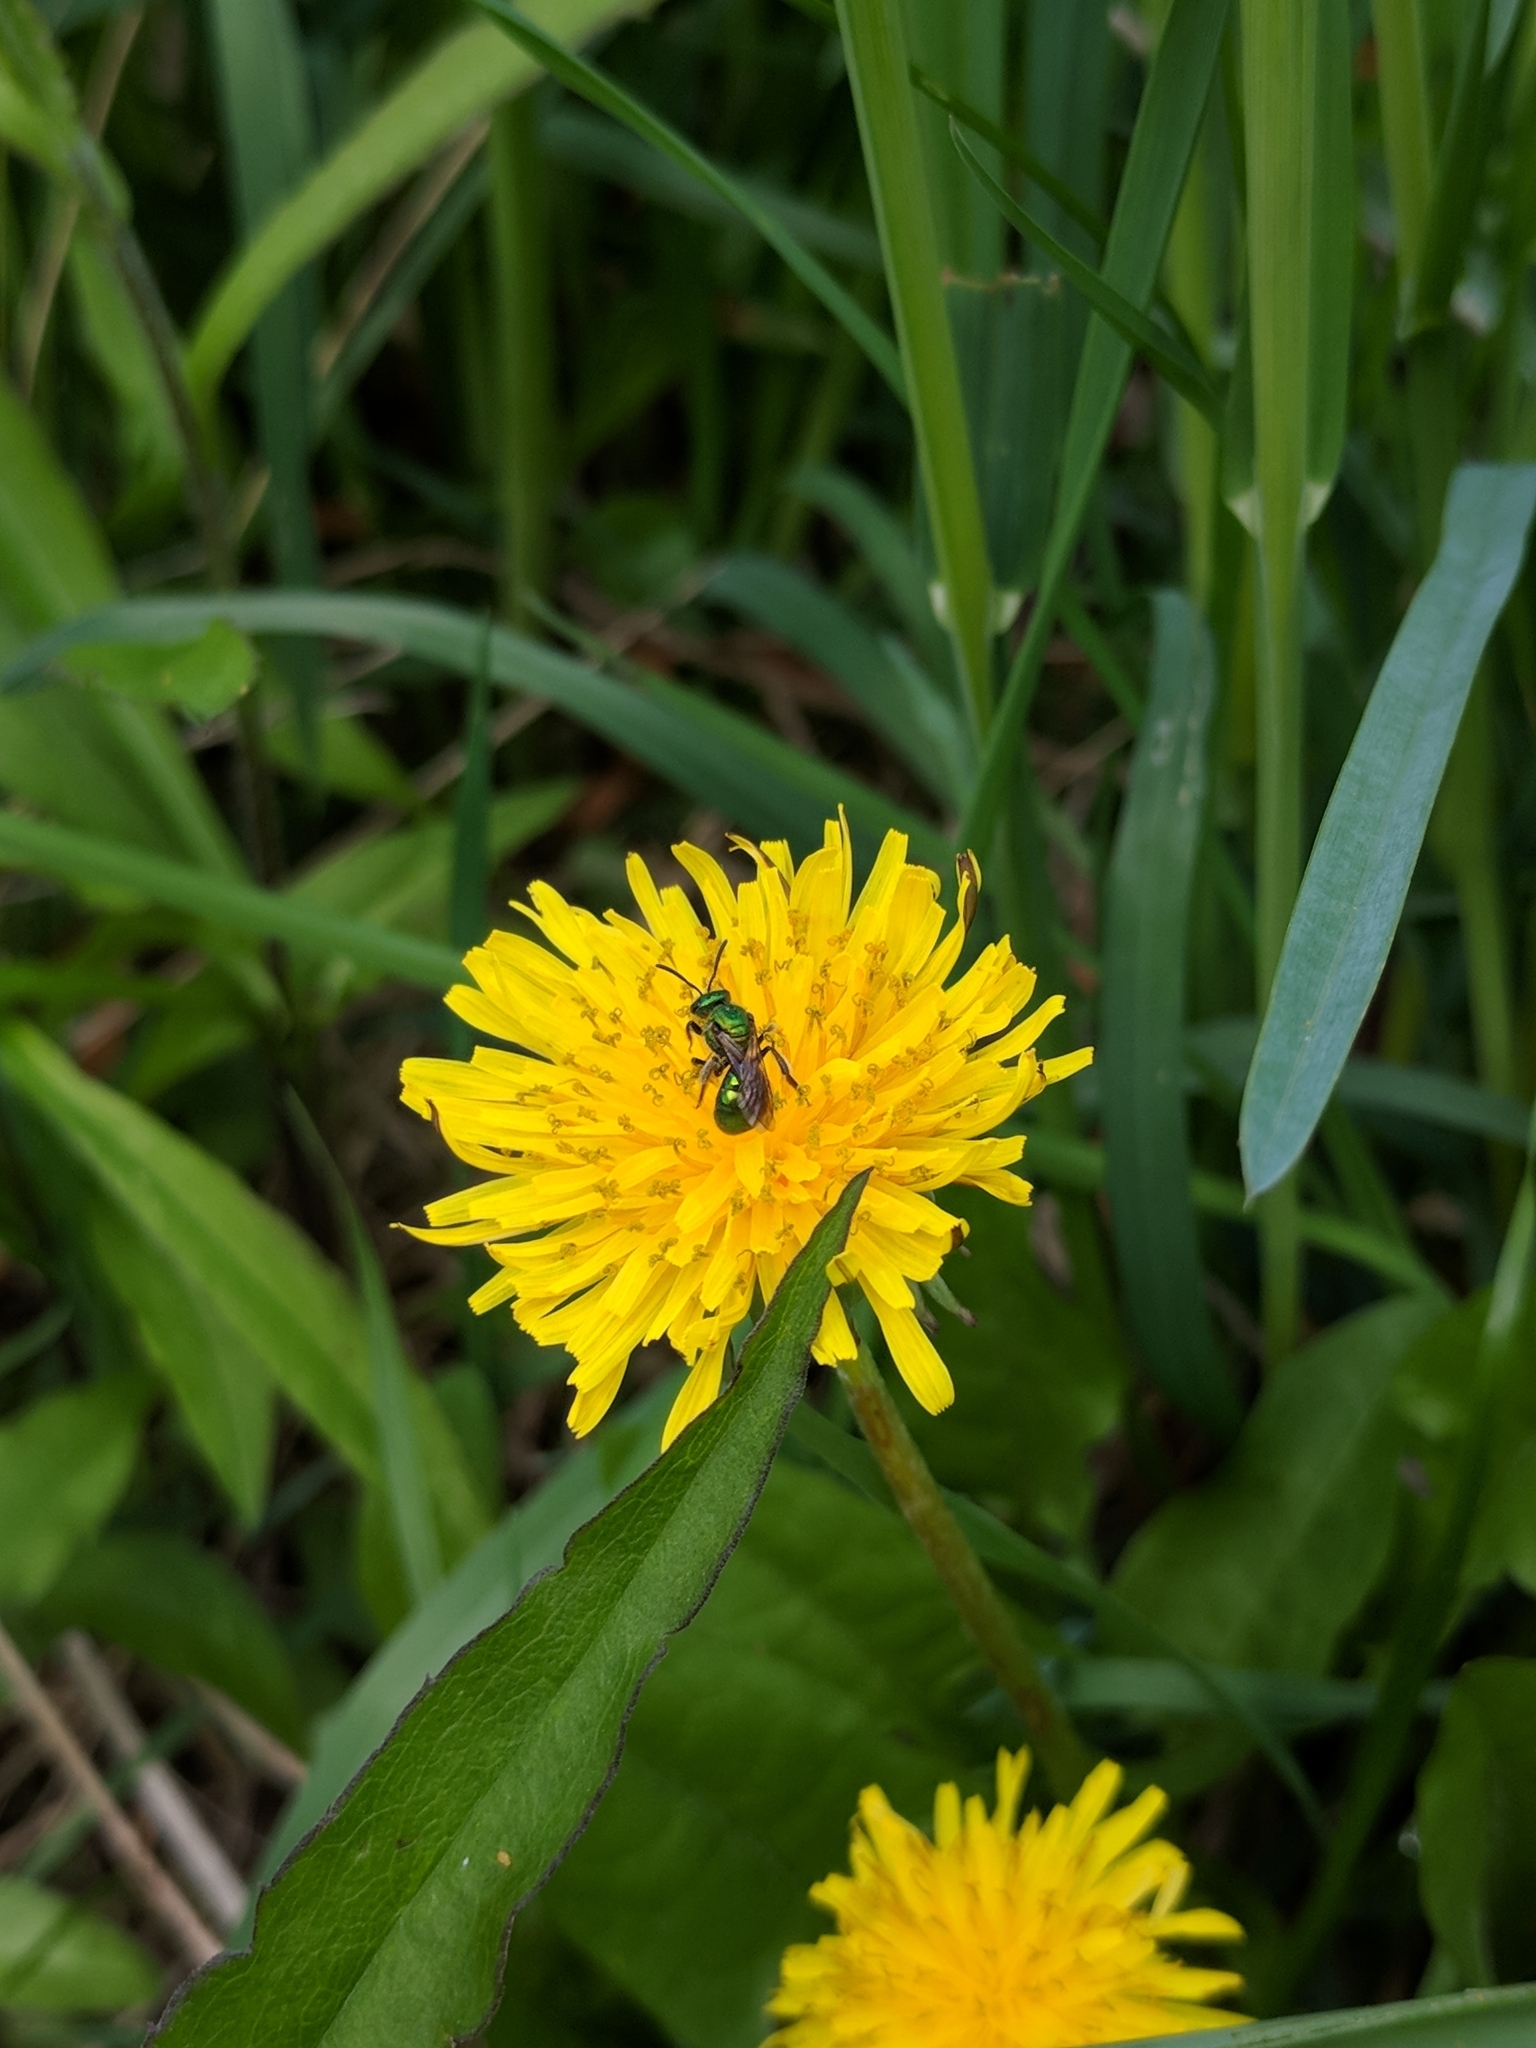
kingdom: Animalia
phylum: Arthropoda
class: Insecta
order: Hymenoptera
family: Halictidae
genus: Augochlora
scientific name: Augochlora pura
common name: Pure green sweat bee
